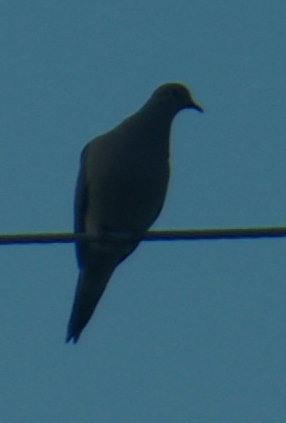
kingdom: Animalia
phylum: Chordata
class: Aves
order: Columbiformes
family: Columbidae
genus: Zenaida
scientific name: Zenaida macroura
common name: Mourning dove
